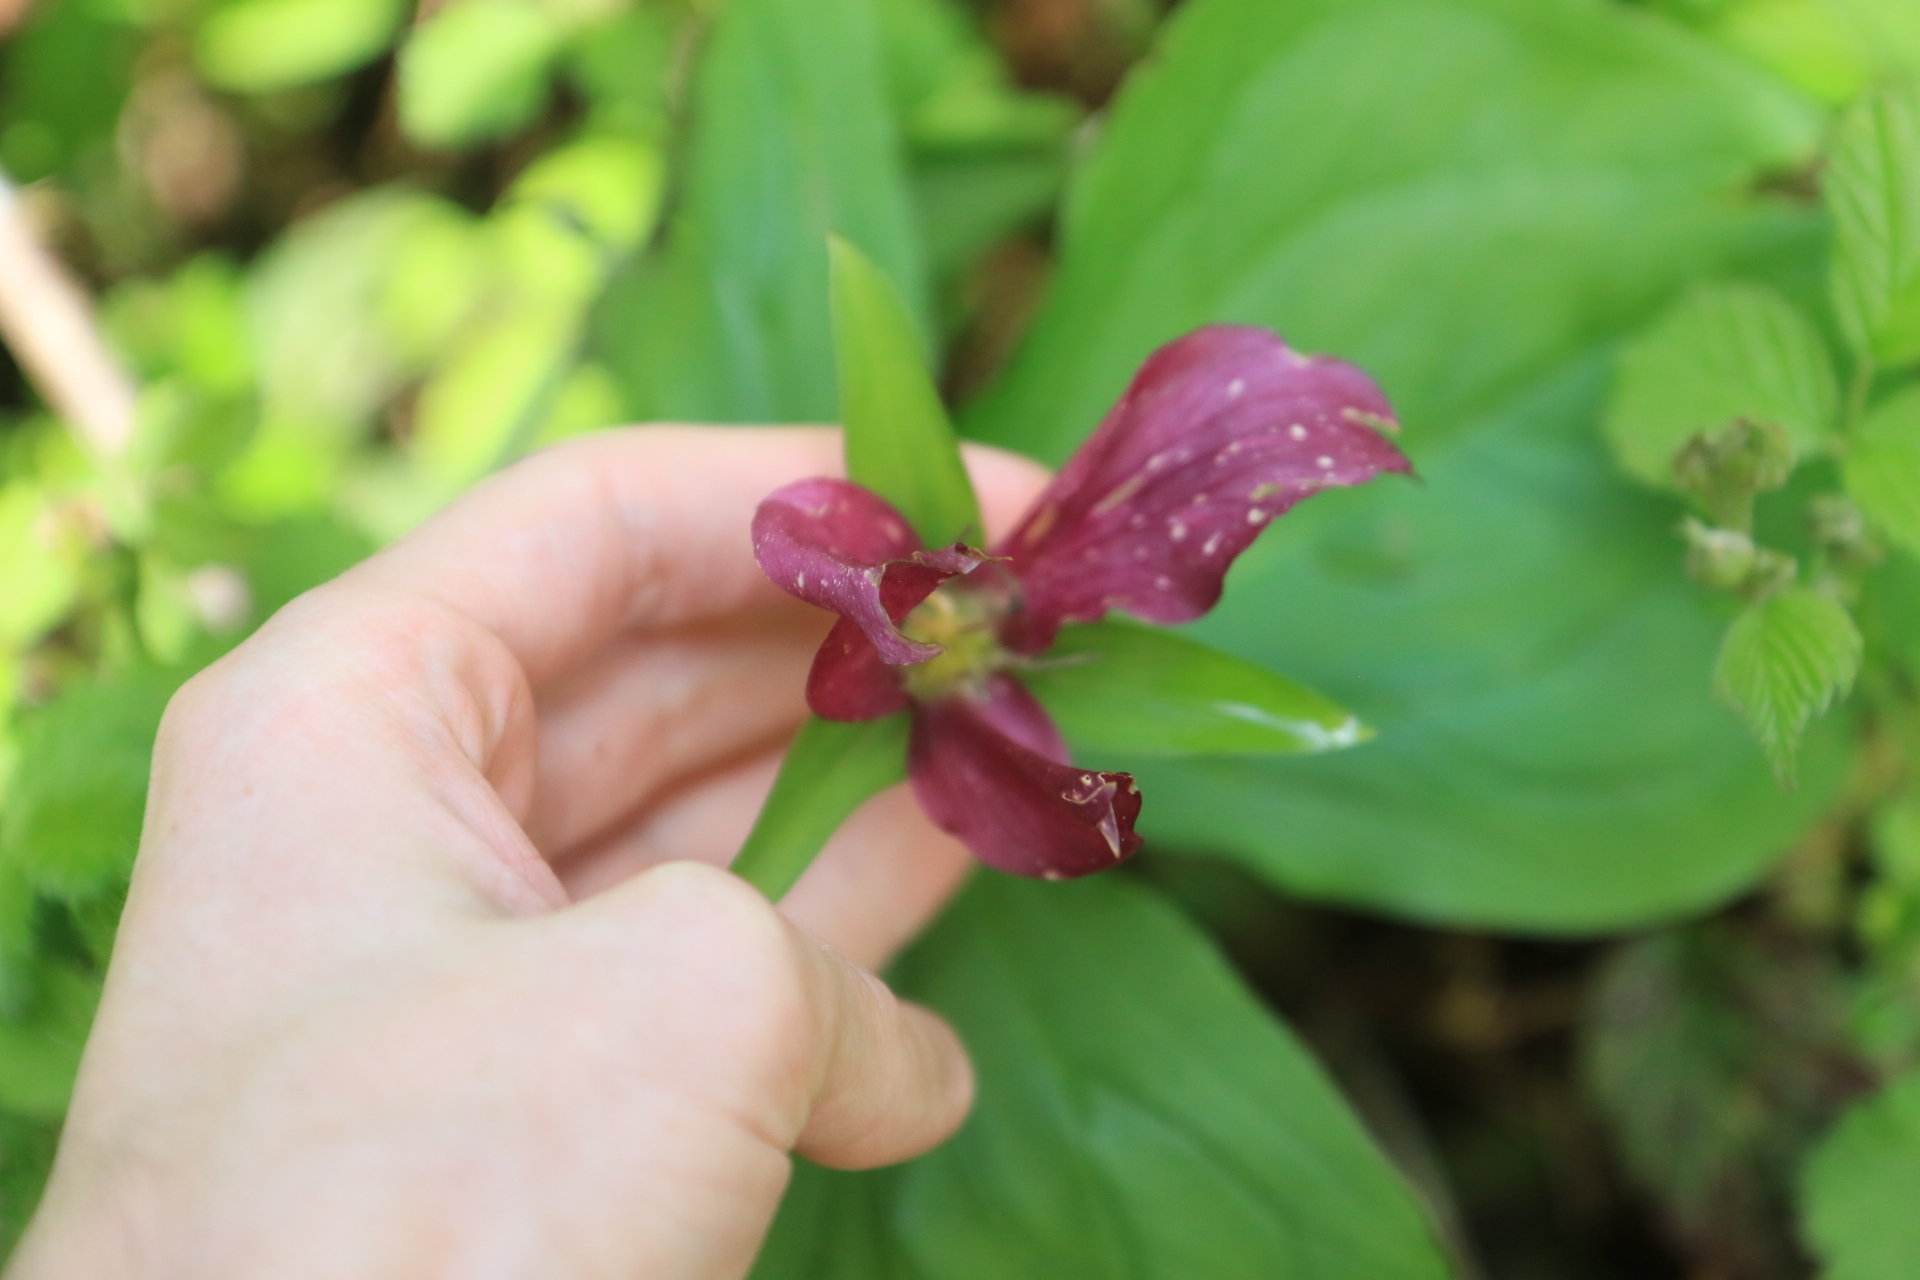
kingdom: Plantae
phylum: Tracheophyta
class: Liliopsida
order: Liliales
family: Melanthiaceae
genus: Trillium
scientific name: Trillium ovatum
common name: Pacific trillium
